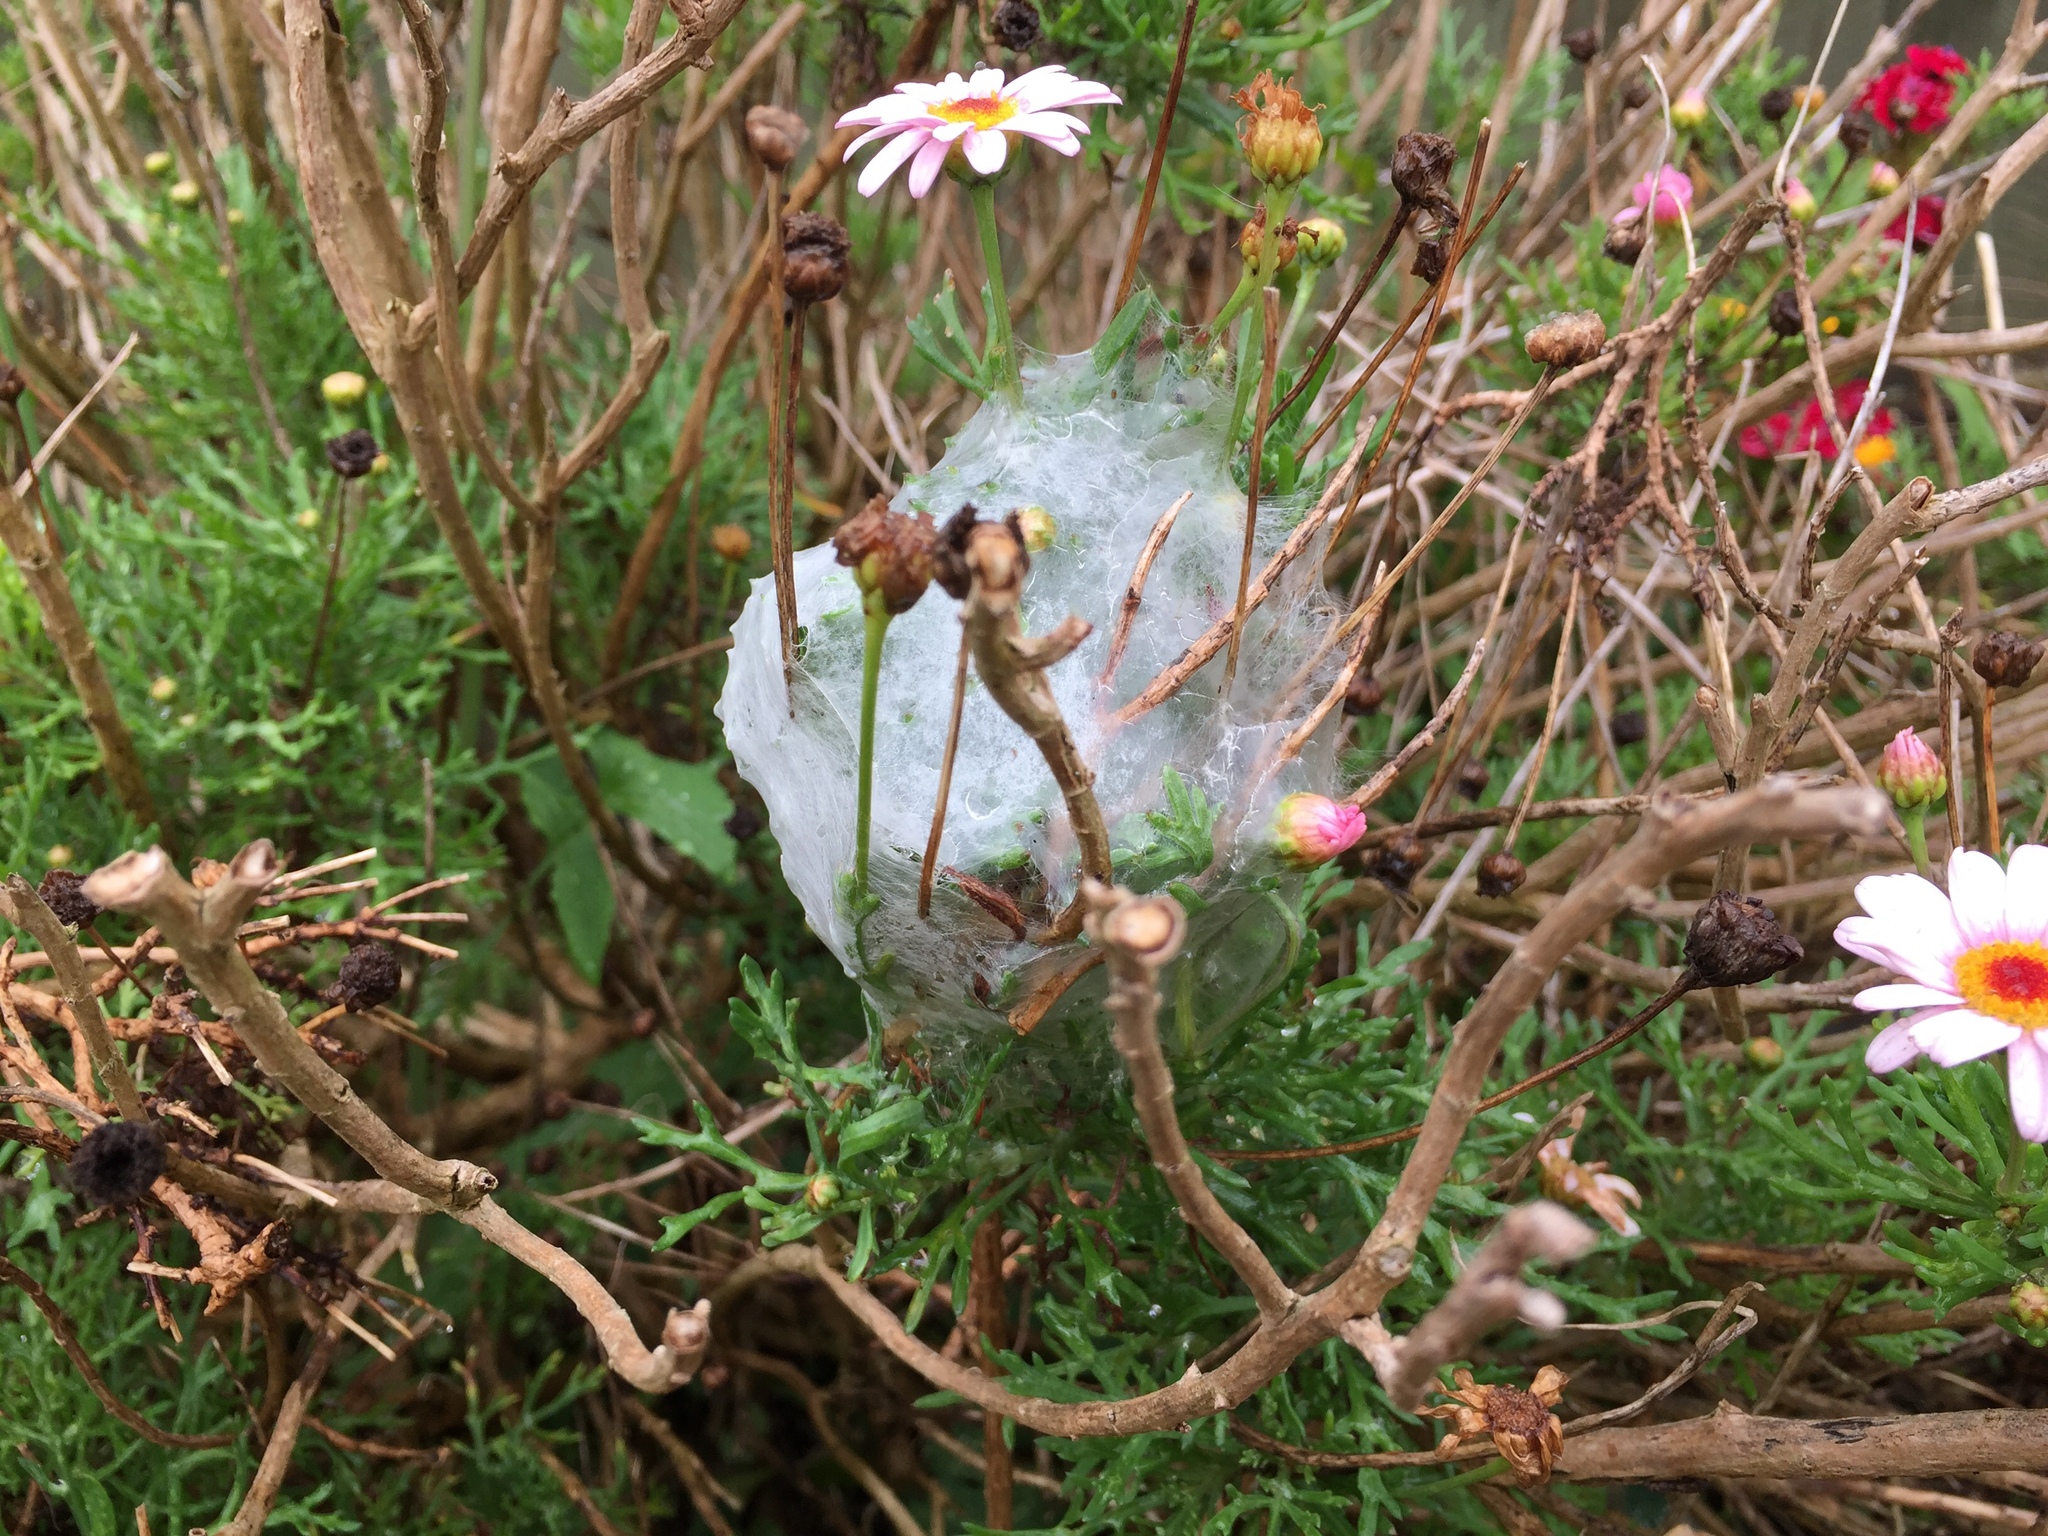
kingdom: Animalia
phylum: Arthropoda
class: Arachnida
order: Araneae
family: Pisauridae
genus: Dolomedes
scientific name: Dolomedes minor
